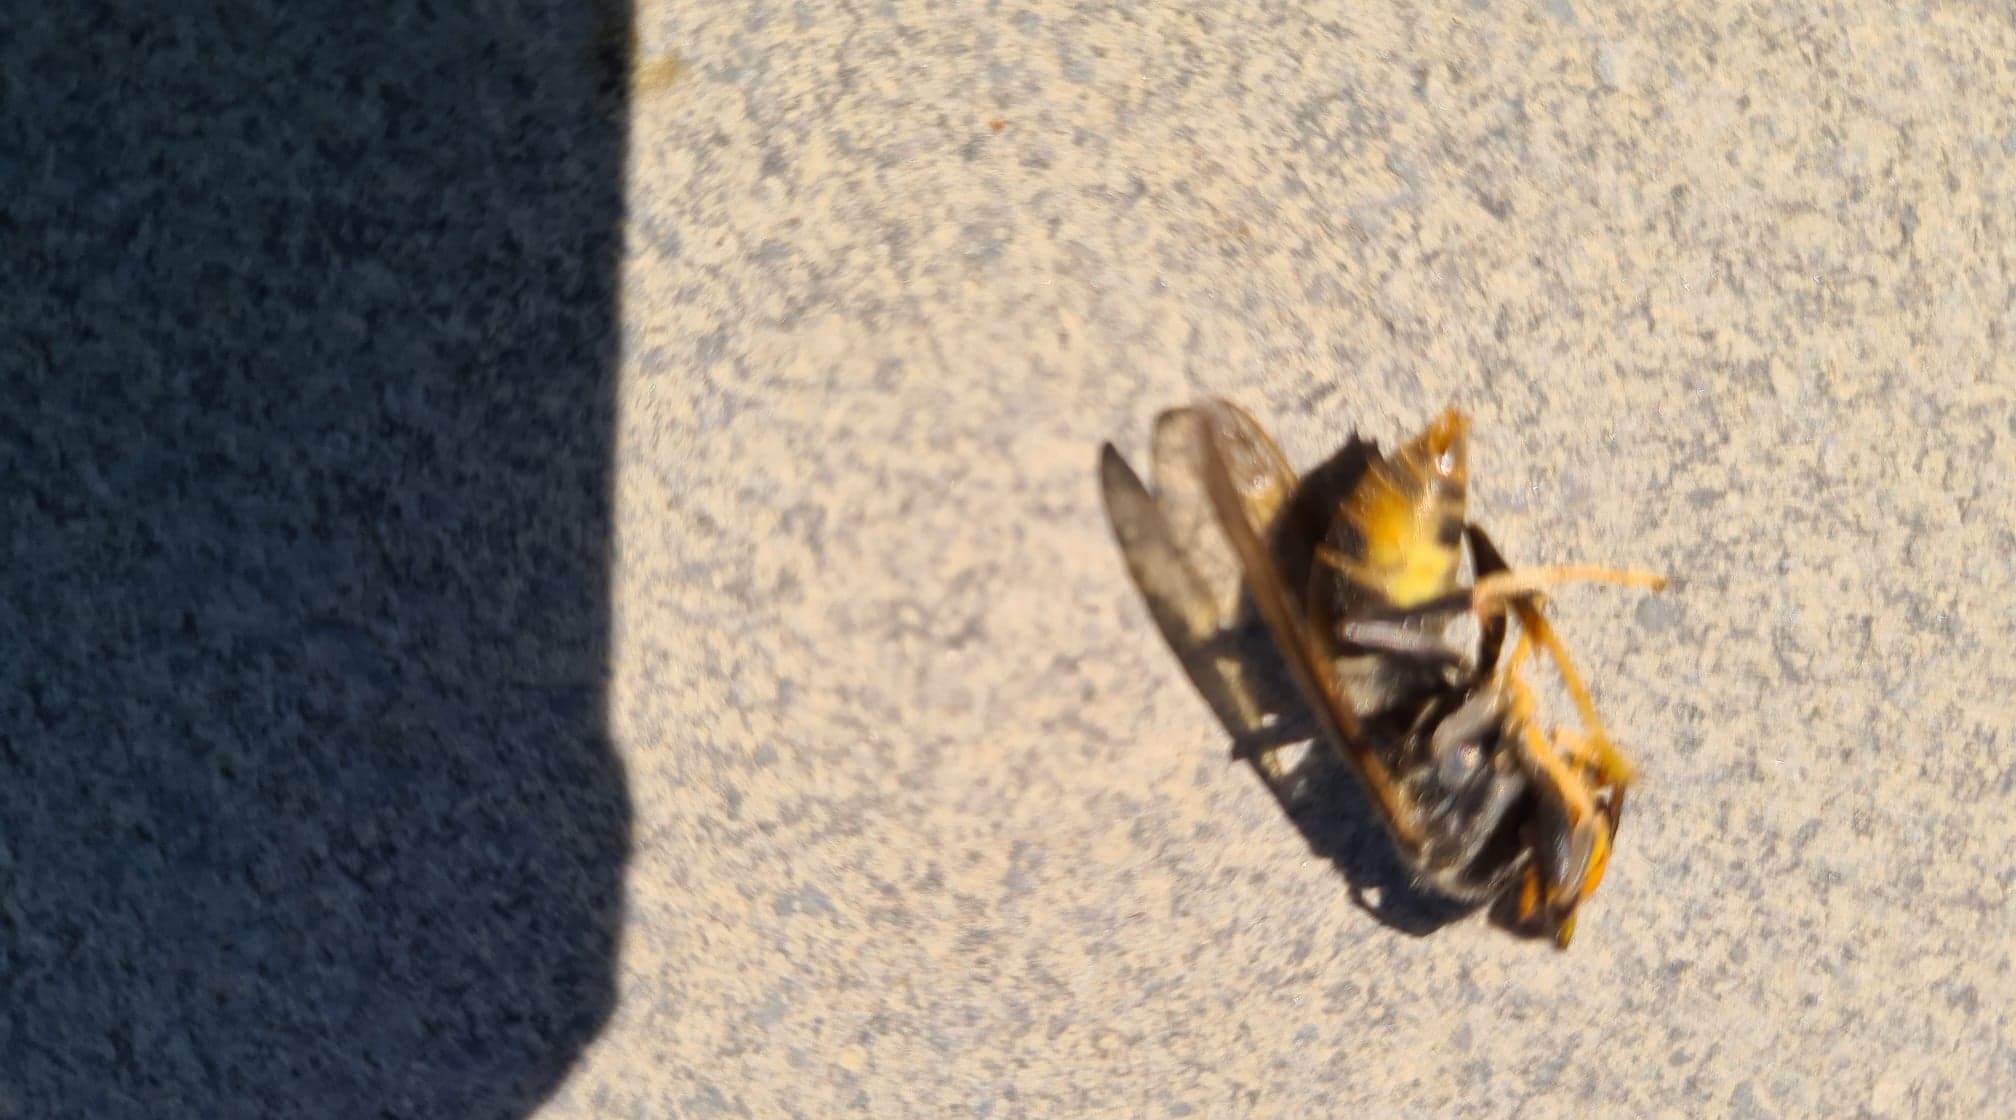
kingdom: Animalia
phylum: Arthropoda
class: Insecta
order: Hymenoptera
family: Vespidae
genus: Vespa
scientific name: Vespa velutina
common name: Asian hornet
